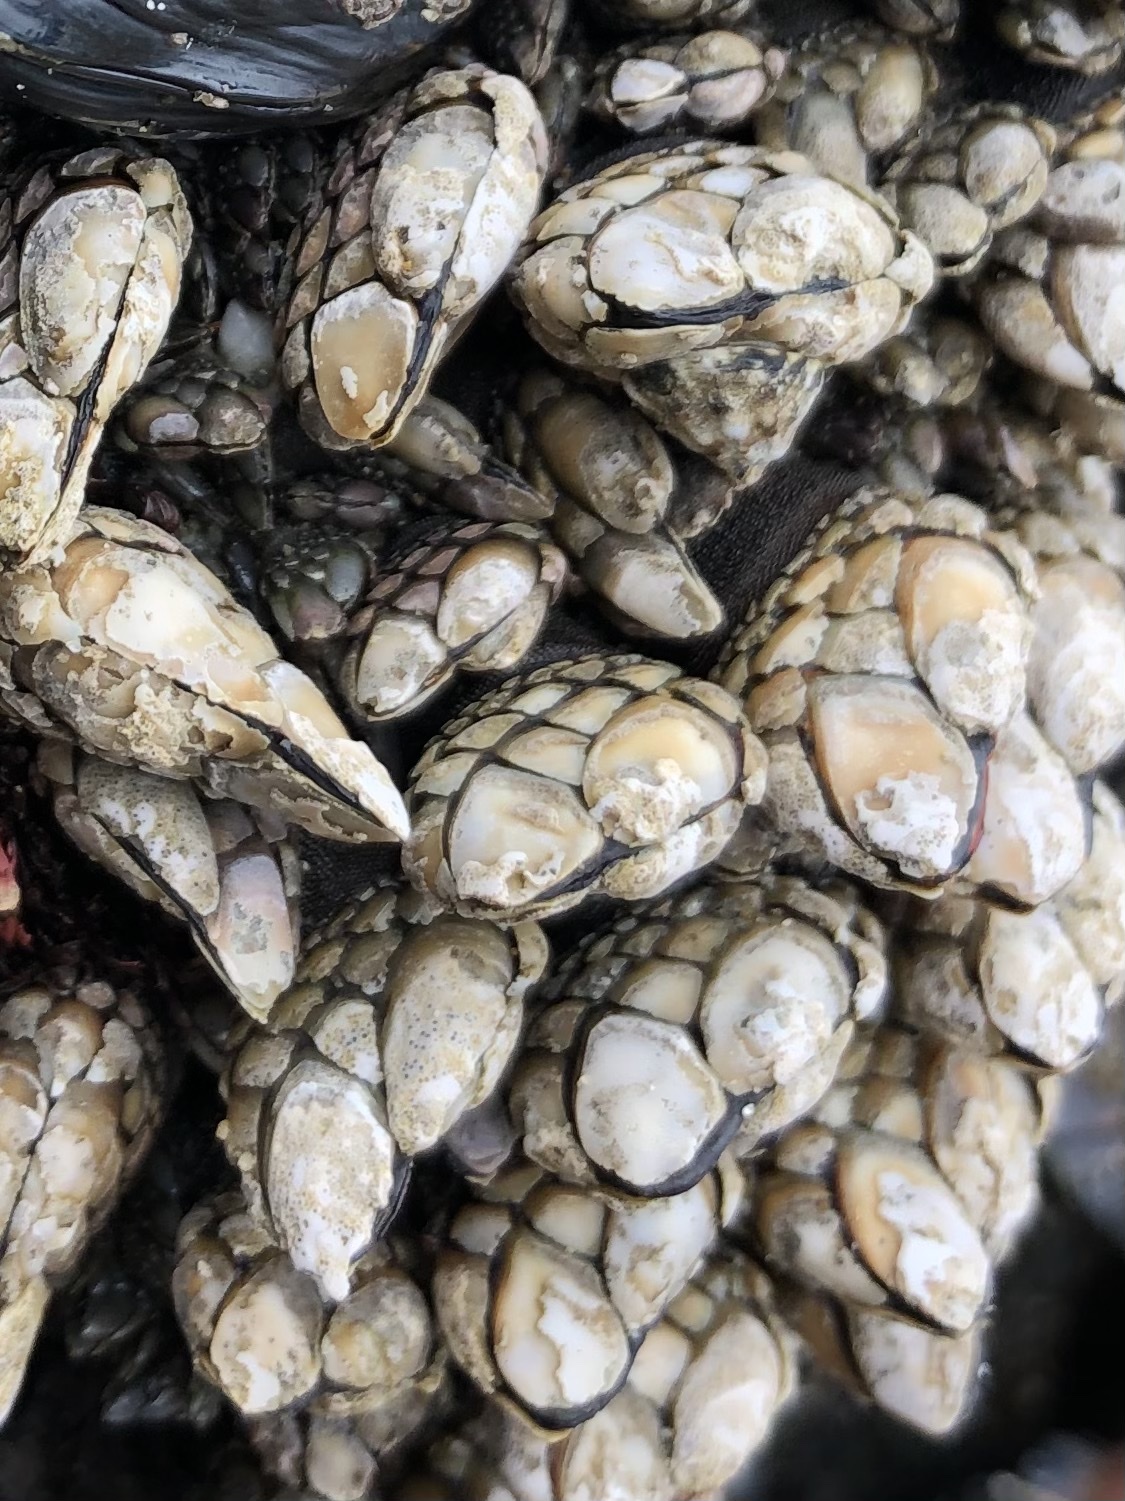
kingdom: Animalia
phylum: Arthropoda
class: Maxillopoda
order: Pedunculata
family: Pollicipedidae
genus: Pollicipes
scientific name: Pollicipes polymerus
